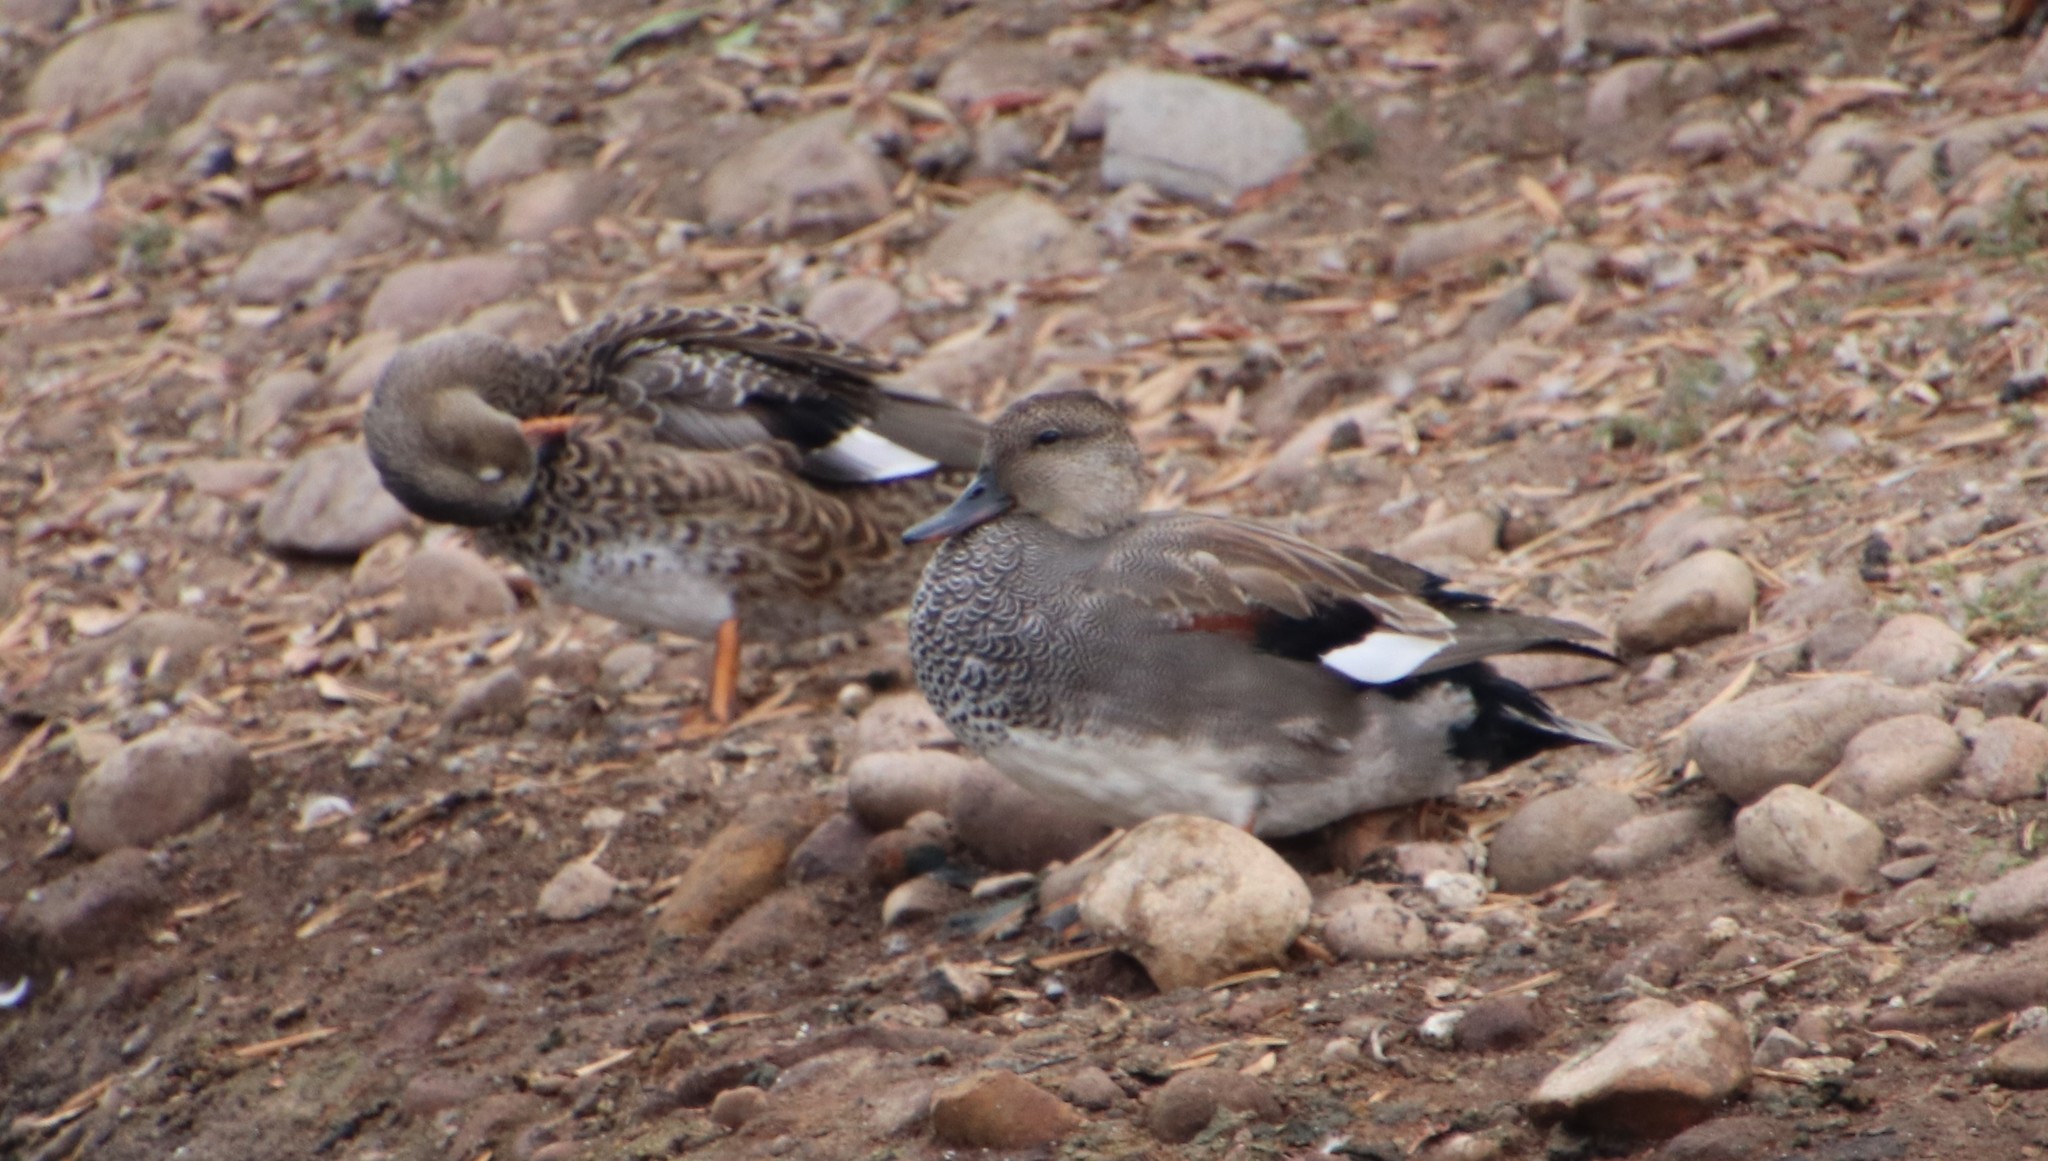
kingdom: Animalia
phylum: Chordata
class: Aves
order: Anseriformes
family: Anatidae
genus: Mareca
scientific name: Mareca strepera
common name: Gadwall
